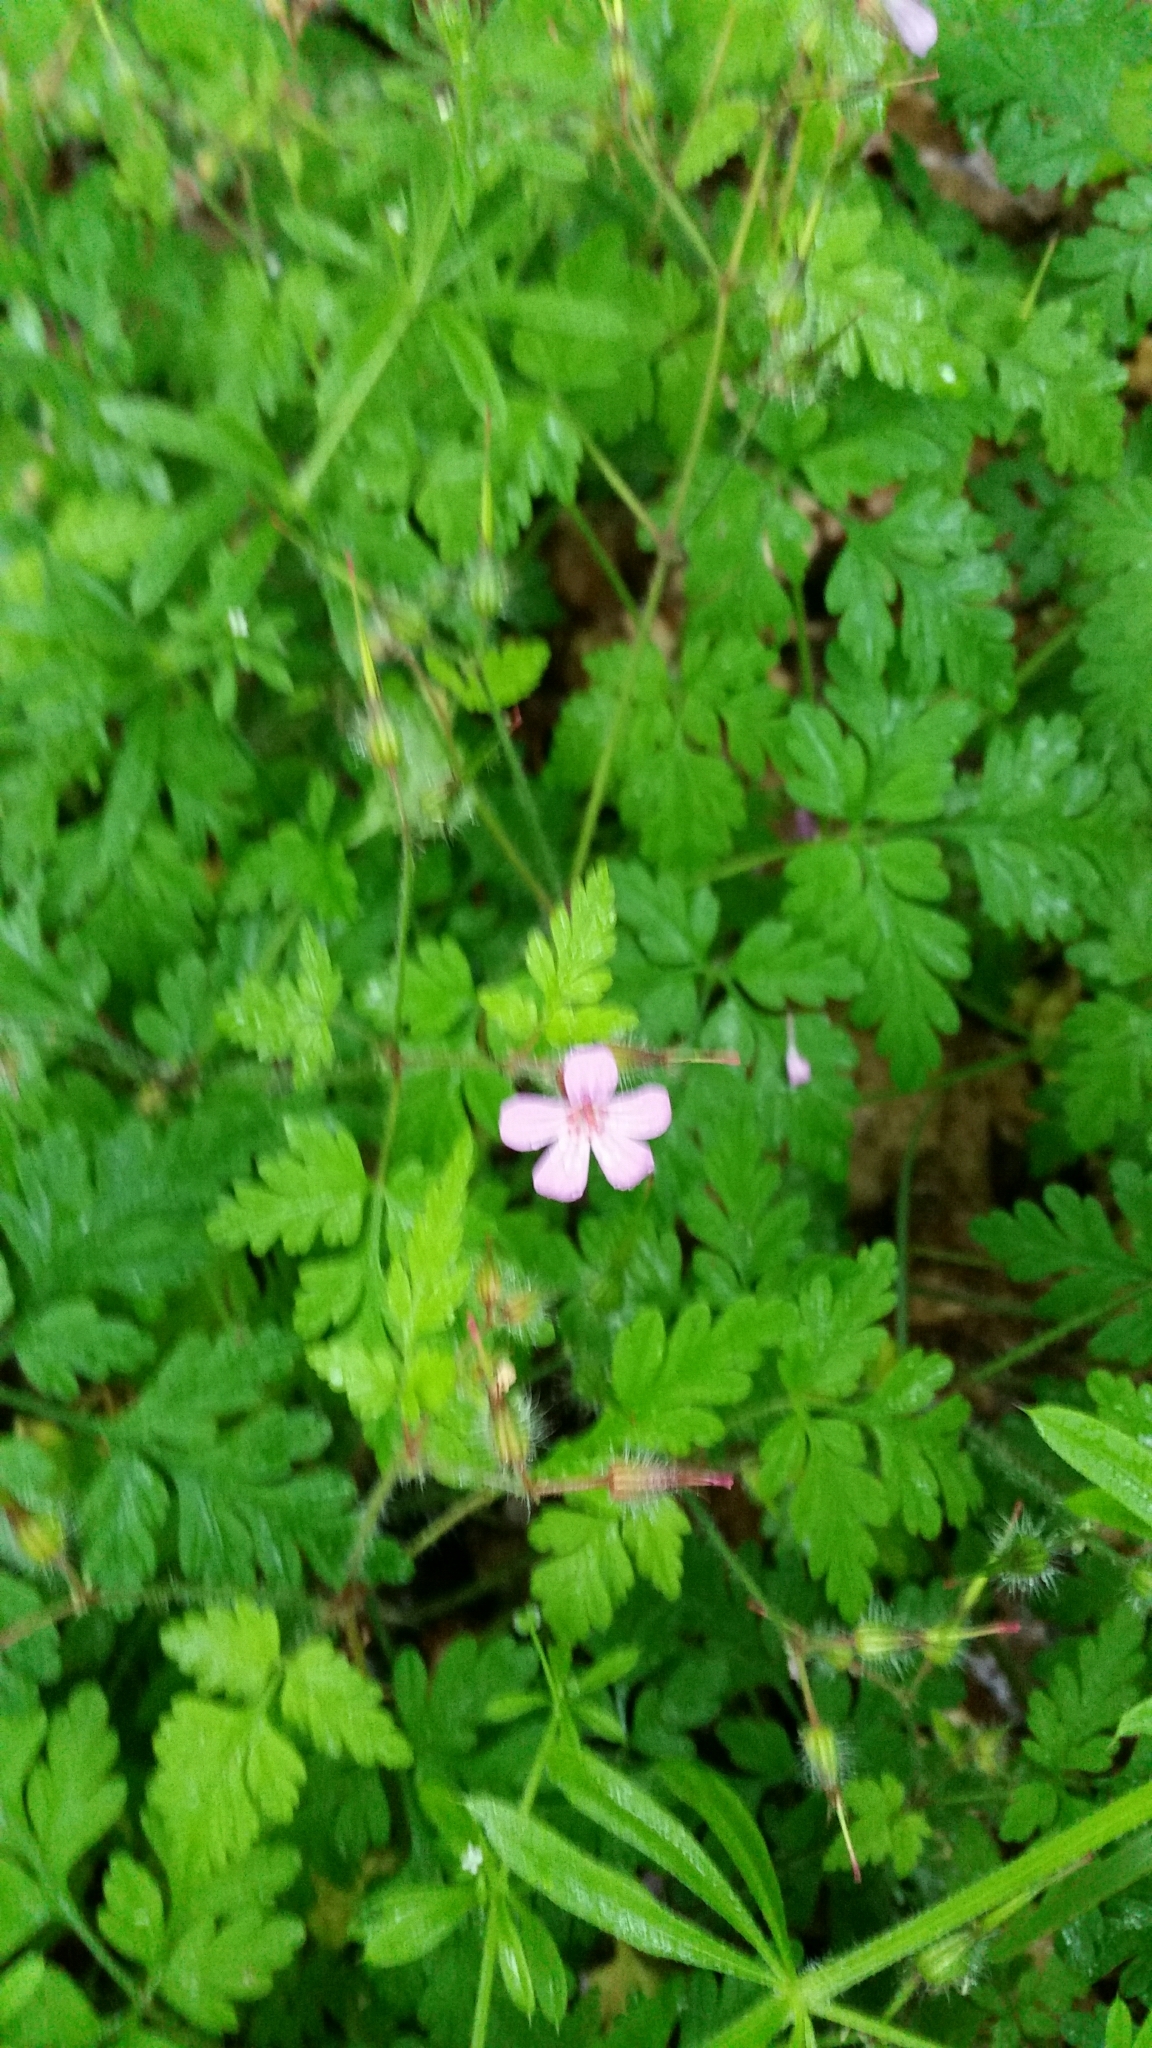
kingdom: Plantae
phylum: Tracheophyta
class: Magnoliopsida
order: Geraniales
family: Geraniaceae
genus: Geranium
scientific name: Geranium robertianum
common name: Herb-robert
